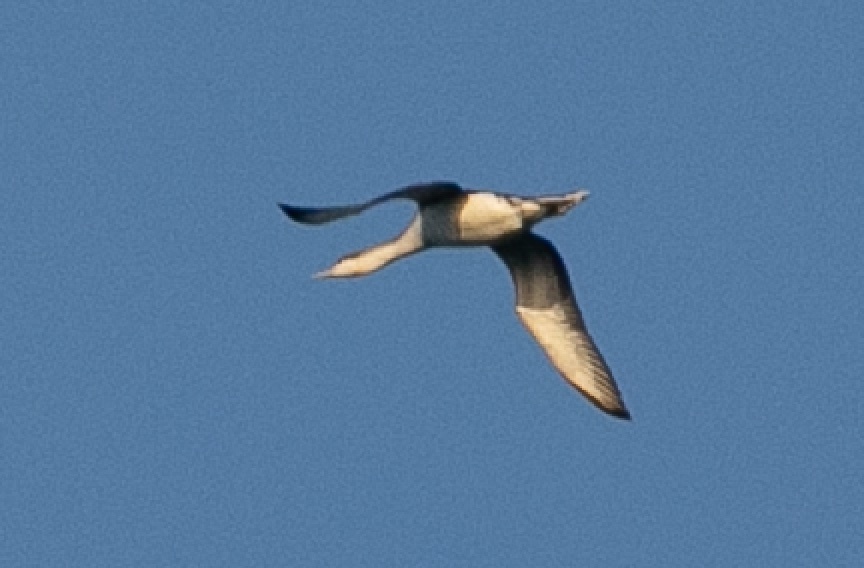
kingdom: Animalia
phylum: Chordata
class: Aves
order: Gaviiformes
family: Gaviidae
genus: Gavia
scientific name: Gavia stellata
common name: Red-throated loon
